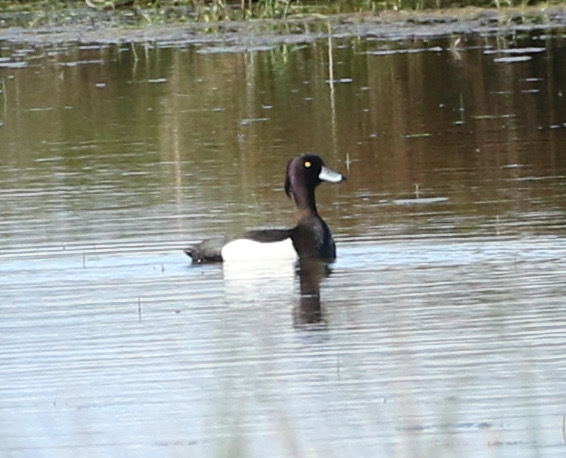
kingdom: Animalia
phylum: Chordata
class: Aves
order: Anseriformes
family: Anatidae
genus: Aythya
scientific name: Aythya fuligula
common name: Tufted duck
